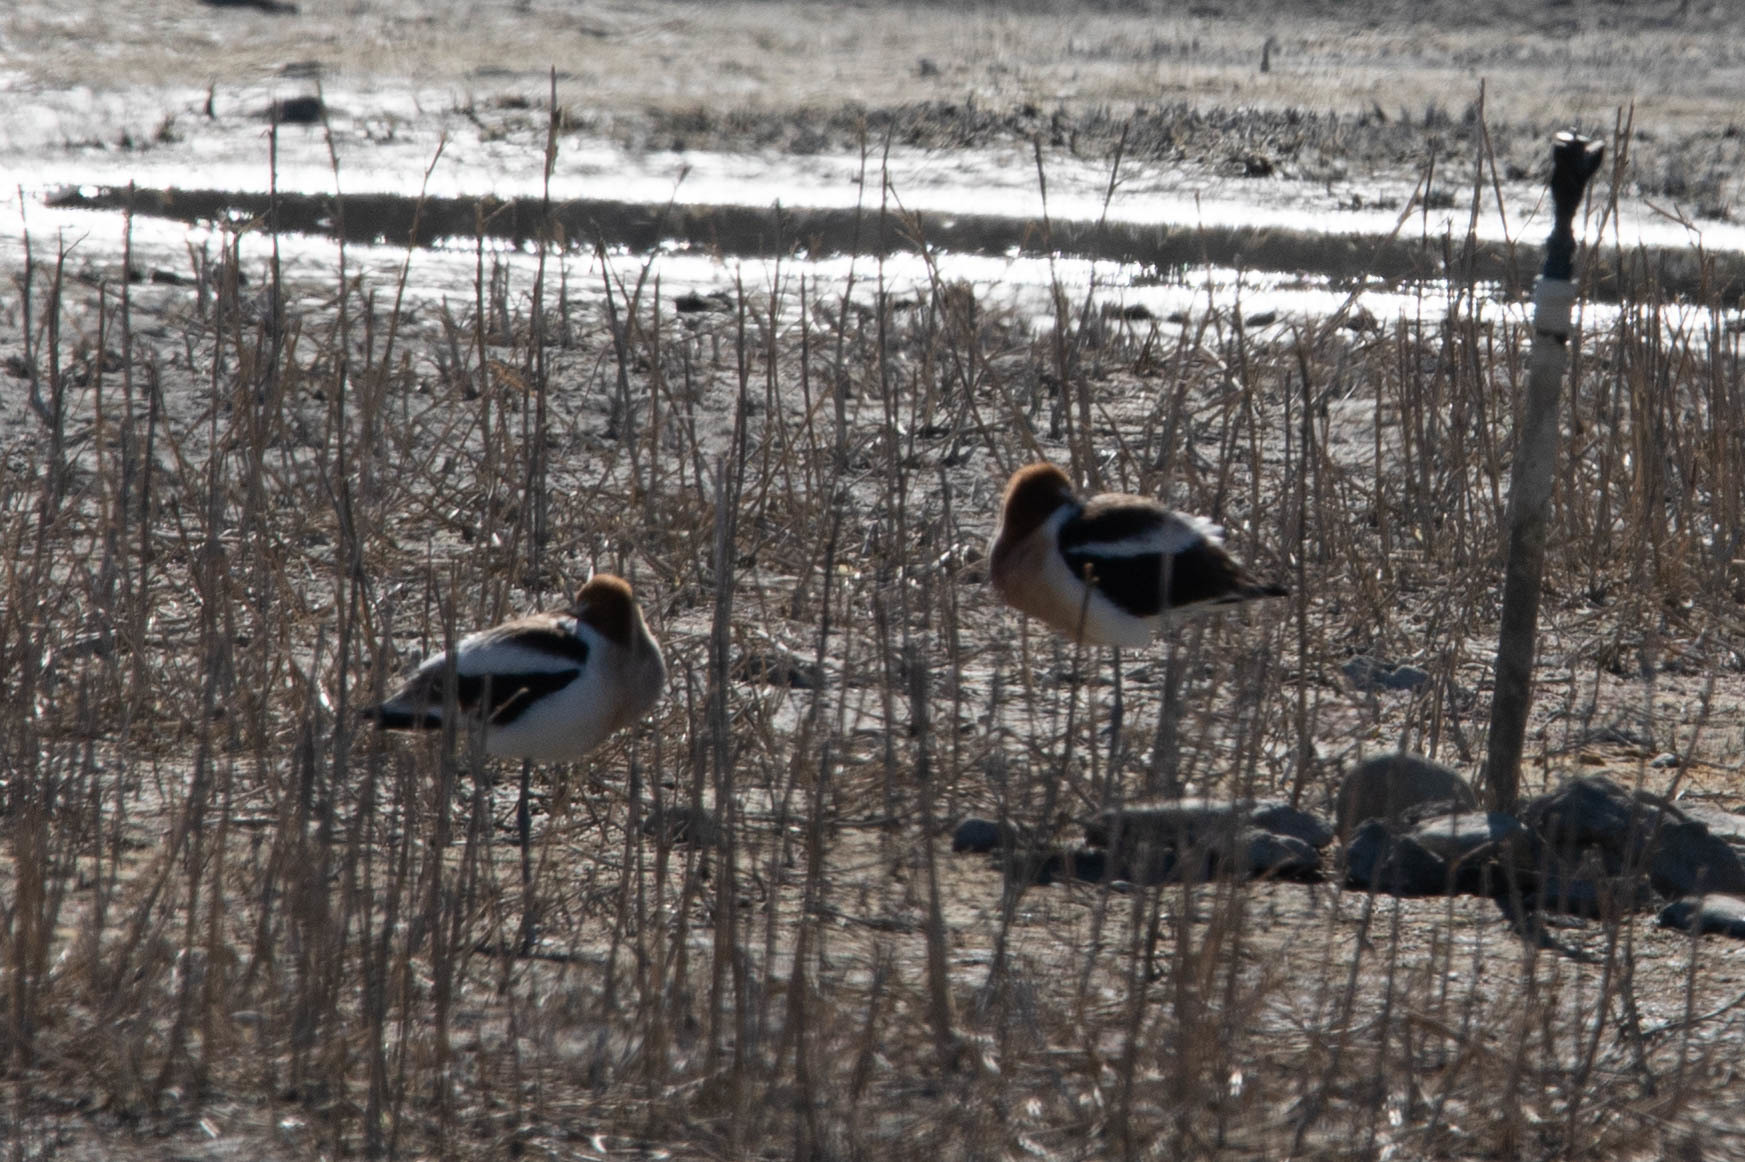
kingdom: Animalia
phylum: Chordata
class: Aves
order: Charadriiformes
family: Recurvirostridae
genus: Recurvirostra
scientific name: Recurvirostra americana
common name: American avocet
